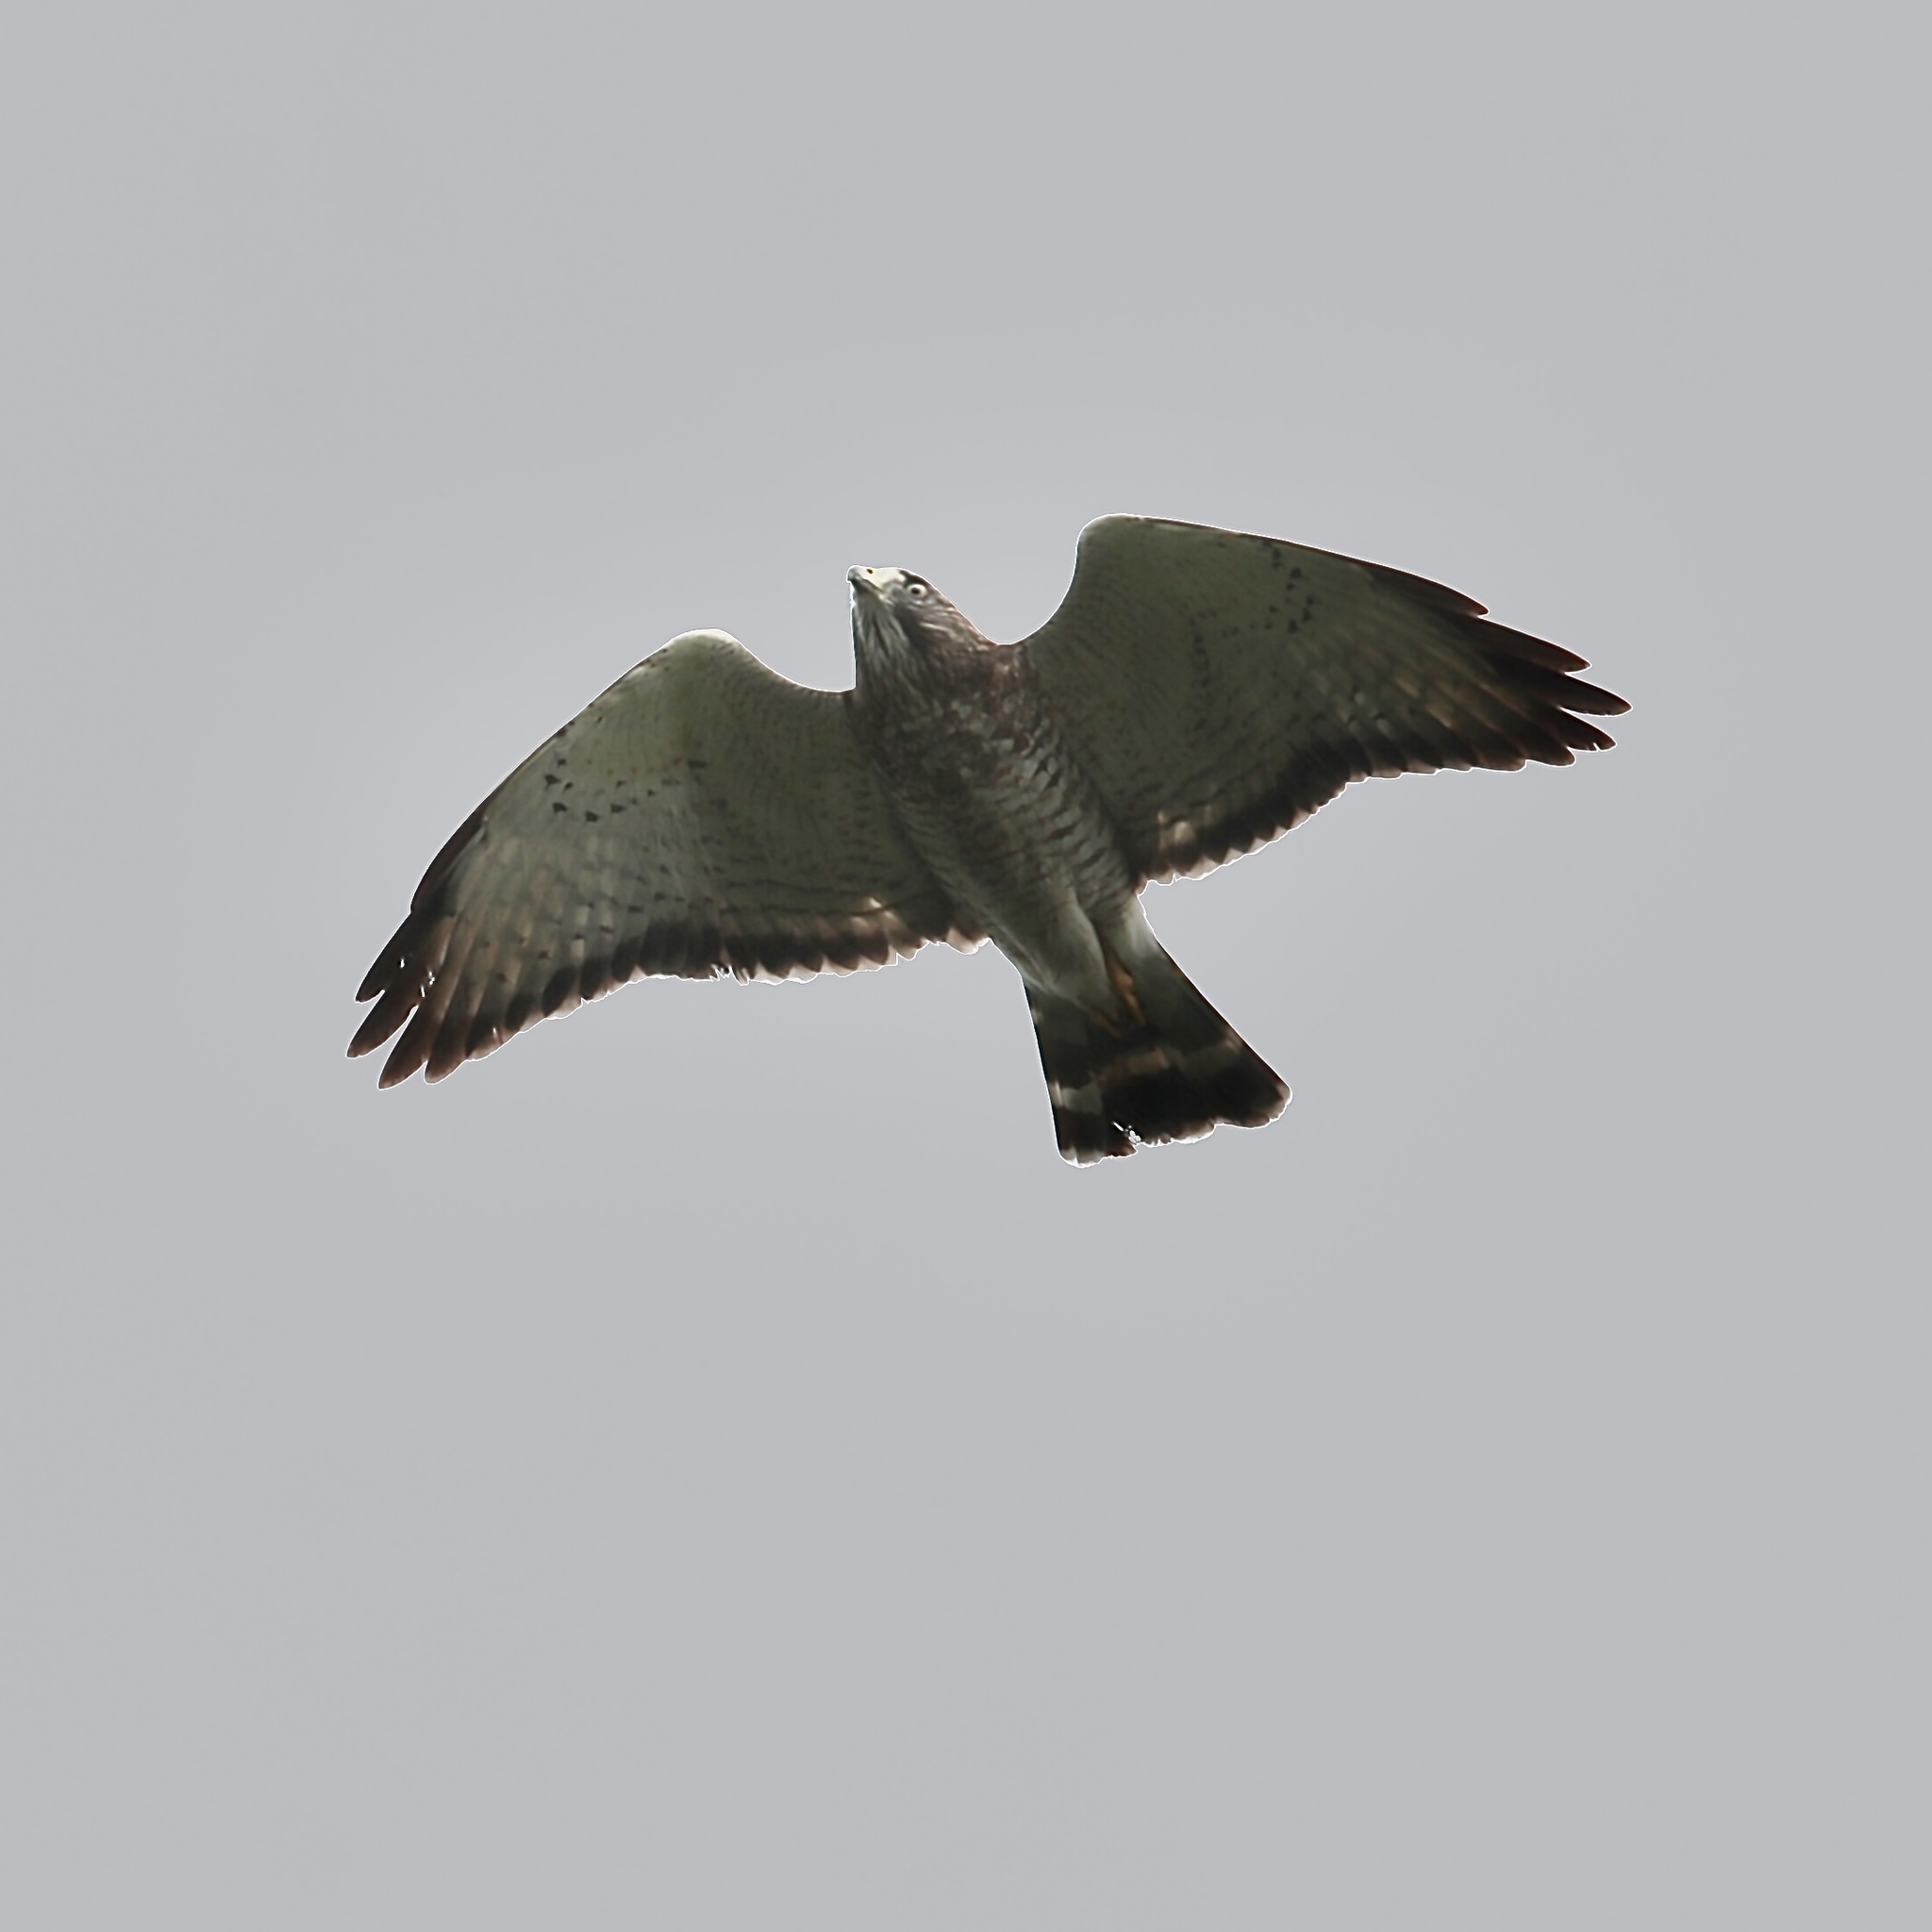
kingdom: Animalia
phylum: Chordata
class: Aves
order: Accipitriformes
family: Accipitridae
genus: Buteo
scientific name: Buteo platypterus
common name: Broad-winged hawk
